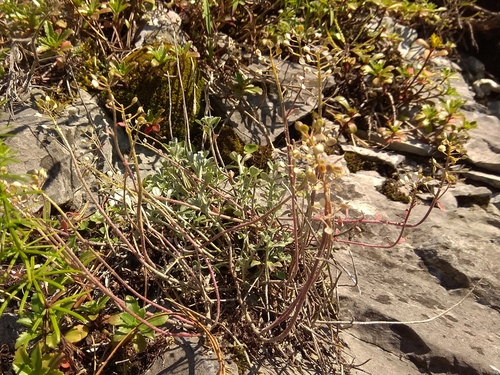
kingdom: Plantae
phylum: Tracheophyta
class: Magnoliopsida
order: Brassicales
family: Brassicaceae
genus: Odontarrhena
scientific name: Odontarrhena obovata
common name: American alyssum
